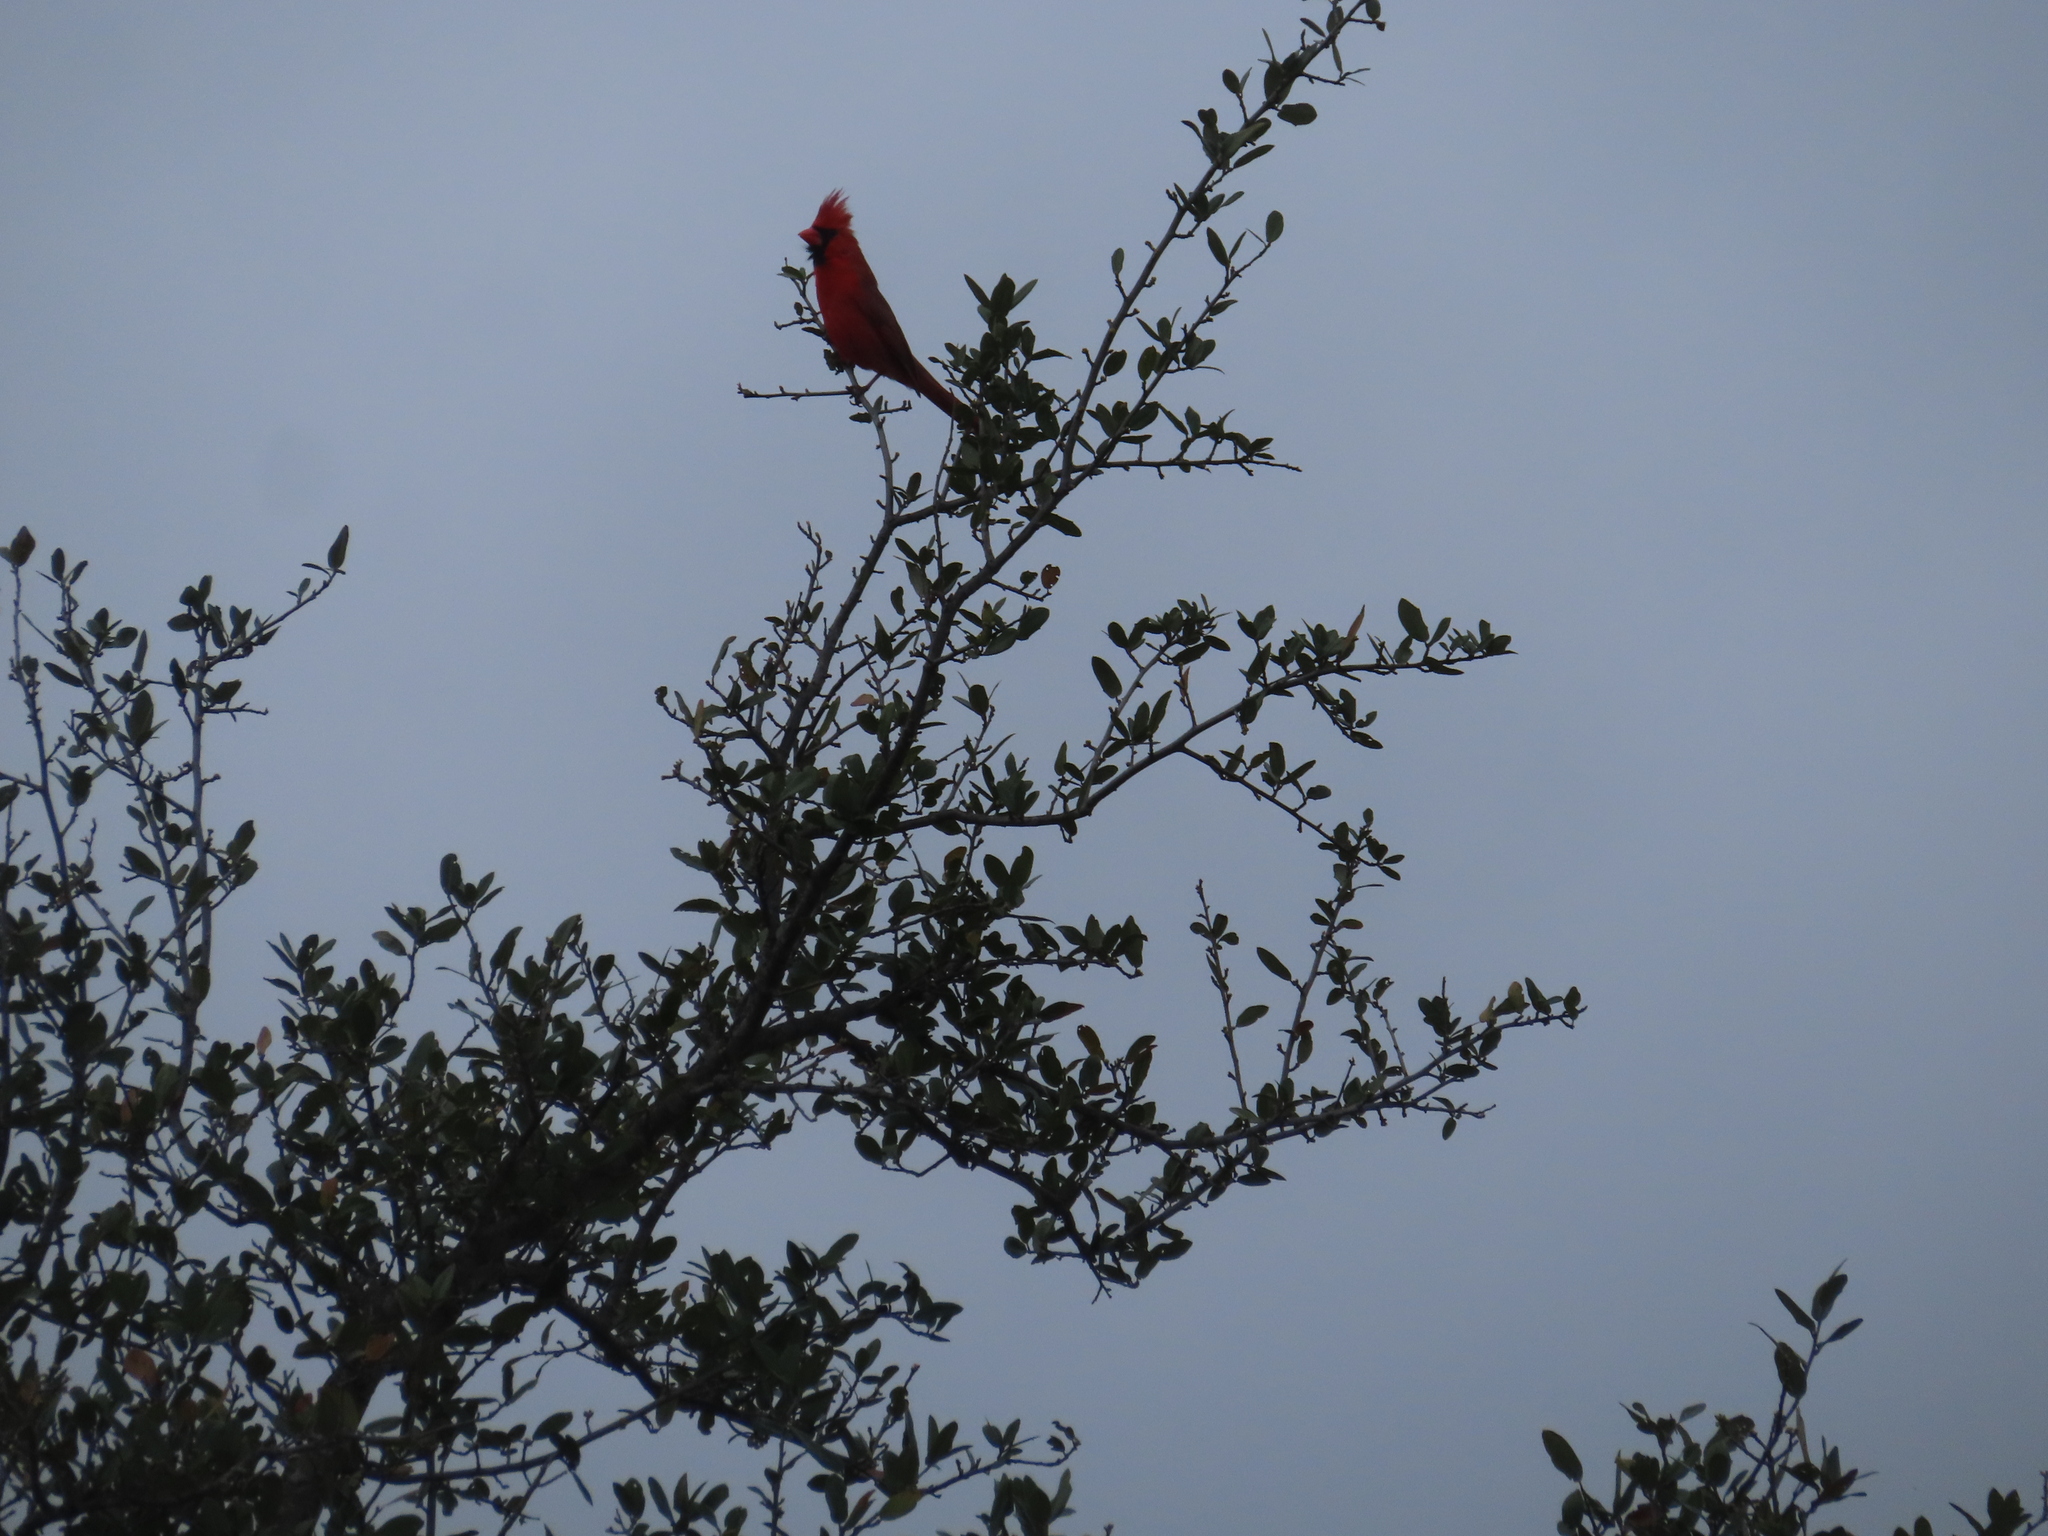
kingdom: Animalia
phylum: Chordata
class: Aves
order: Passeriformes
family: Cardinalidae
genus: Cardinalis
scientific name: Cardinalis cardinalis
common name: Northern cardinal
